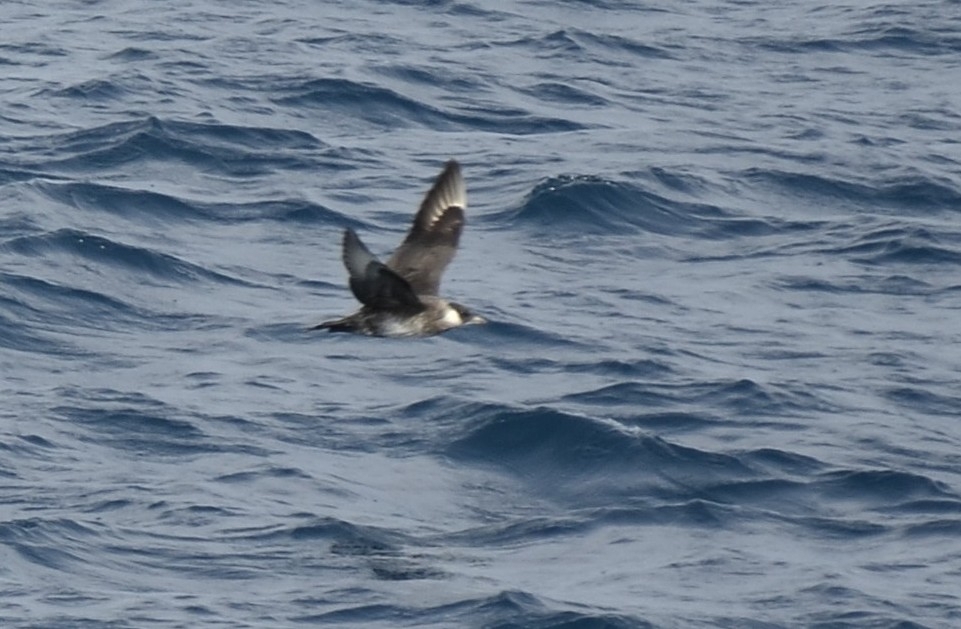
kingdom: Animalia
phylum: Chordata
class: Aves
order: Charadriiformes
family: Stercorariidae
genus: Stercorarius
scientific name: Stercorarius pomarinus
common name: Pomarine jaeger
